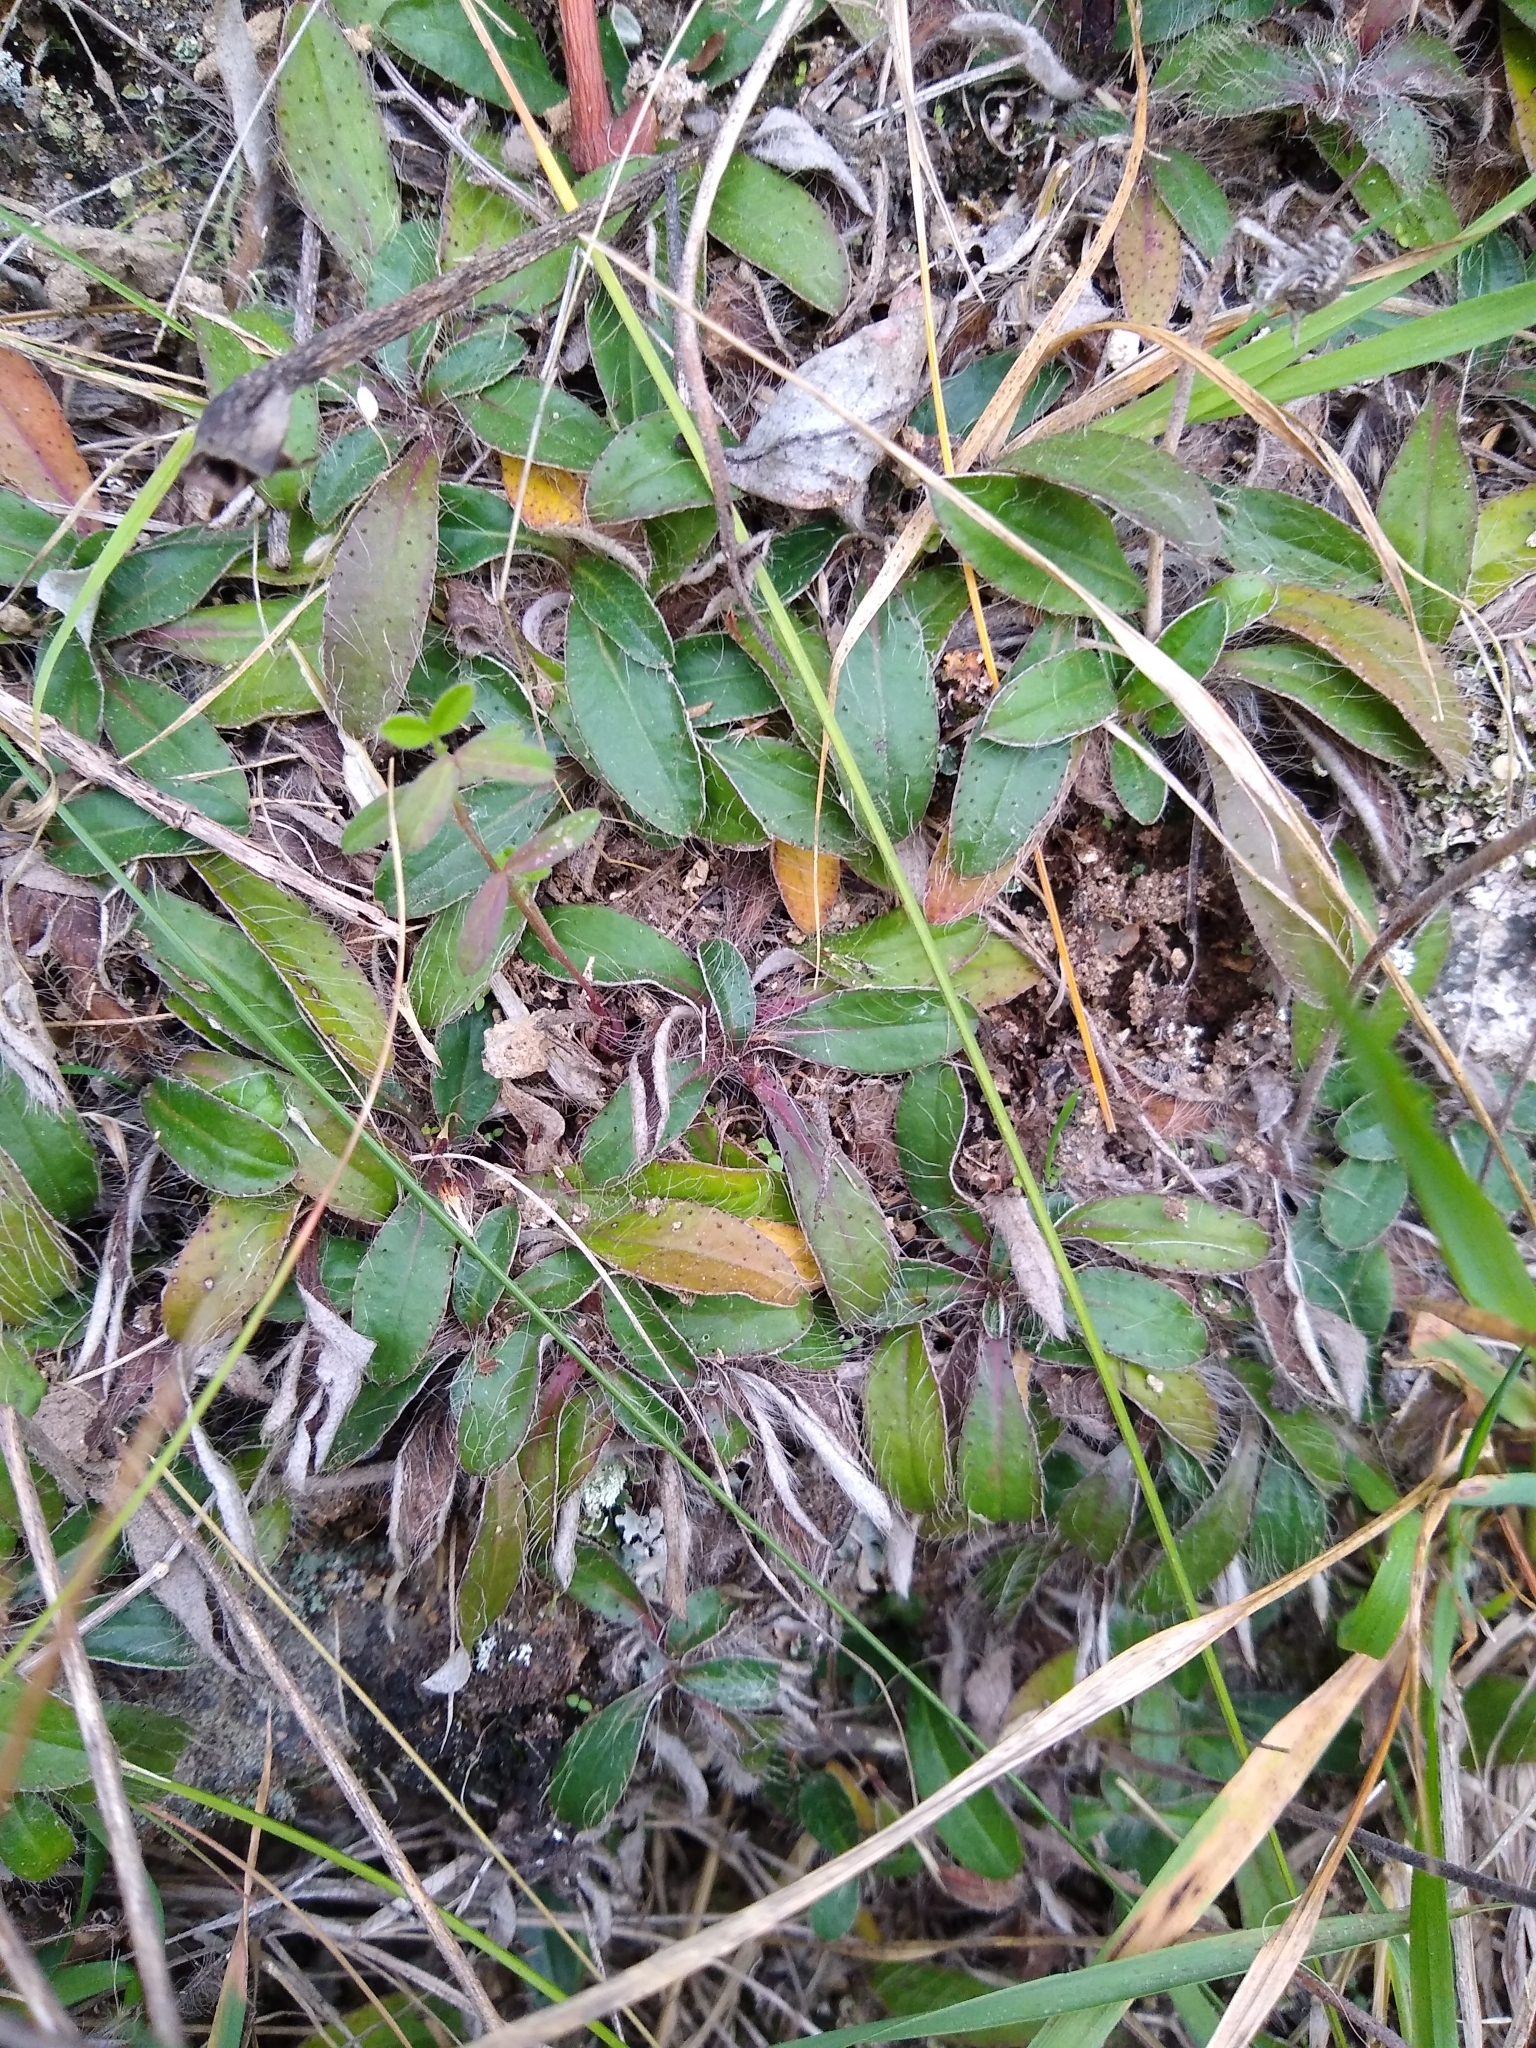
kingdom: Plantae
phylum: Tracheophyta
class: Magnoliopsida
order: Asterales
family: Asteraceae
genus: Pilosella
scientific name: Pilosella officinarum
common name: Mouse-ear hawkweed
